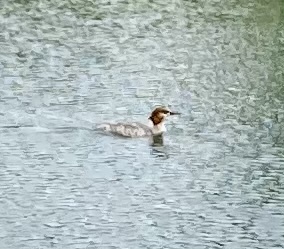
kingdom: Animalia
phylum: Chordata
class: Aves
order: Anseriformes
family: Anatidae
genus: Mergus
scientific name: Mergus merganser
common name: Common merganser
